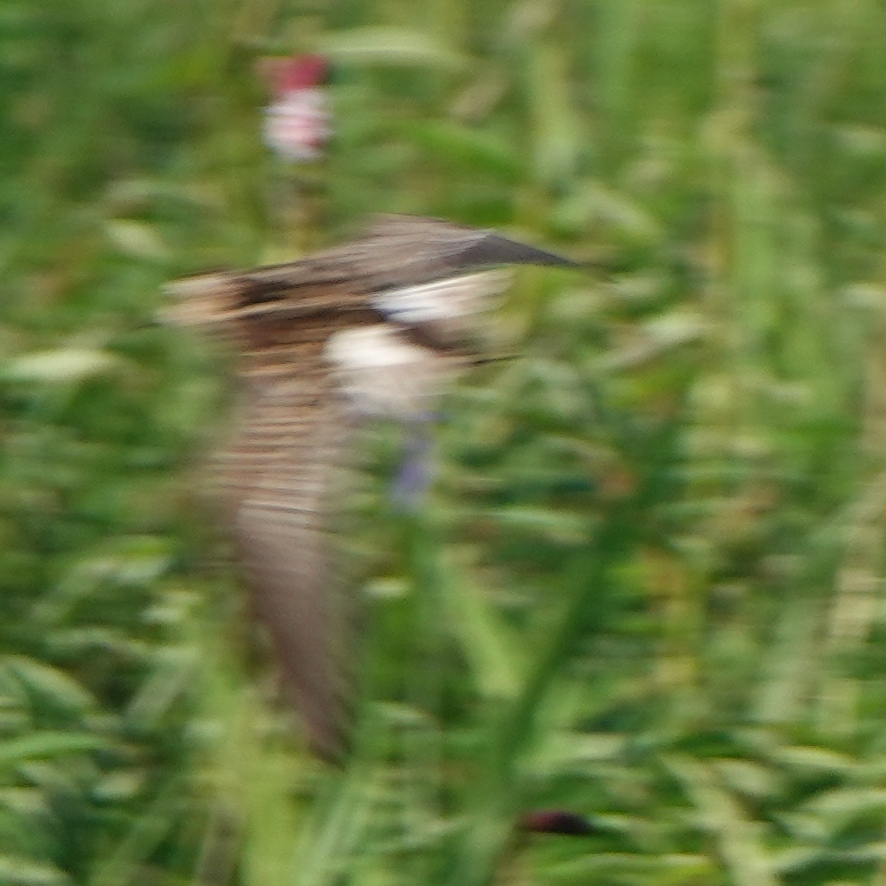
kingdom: Animalia
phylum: Chordata
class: Aves
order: Charadriiformes
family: Scolopacidae
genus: Calidris
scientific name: Calidris subminuta
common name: Long-toed stint
